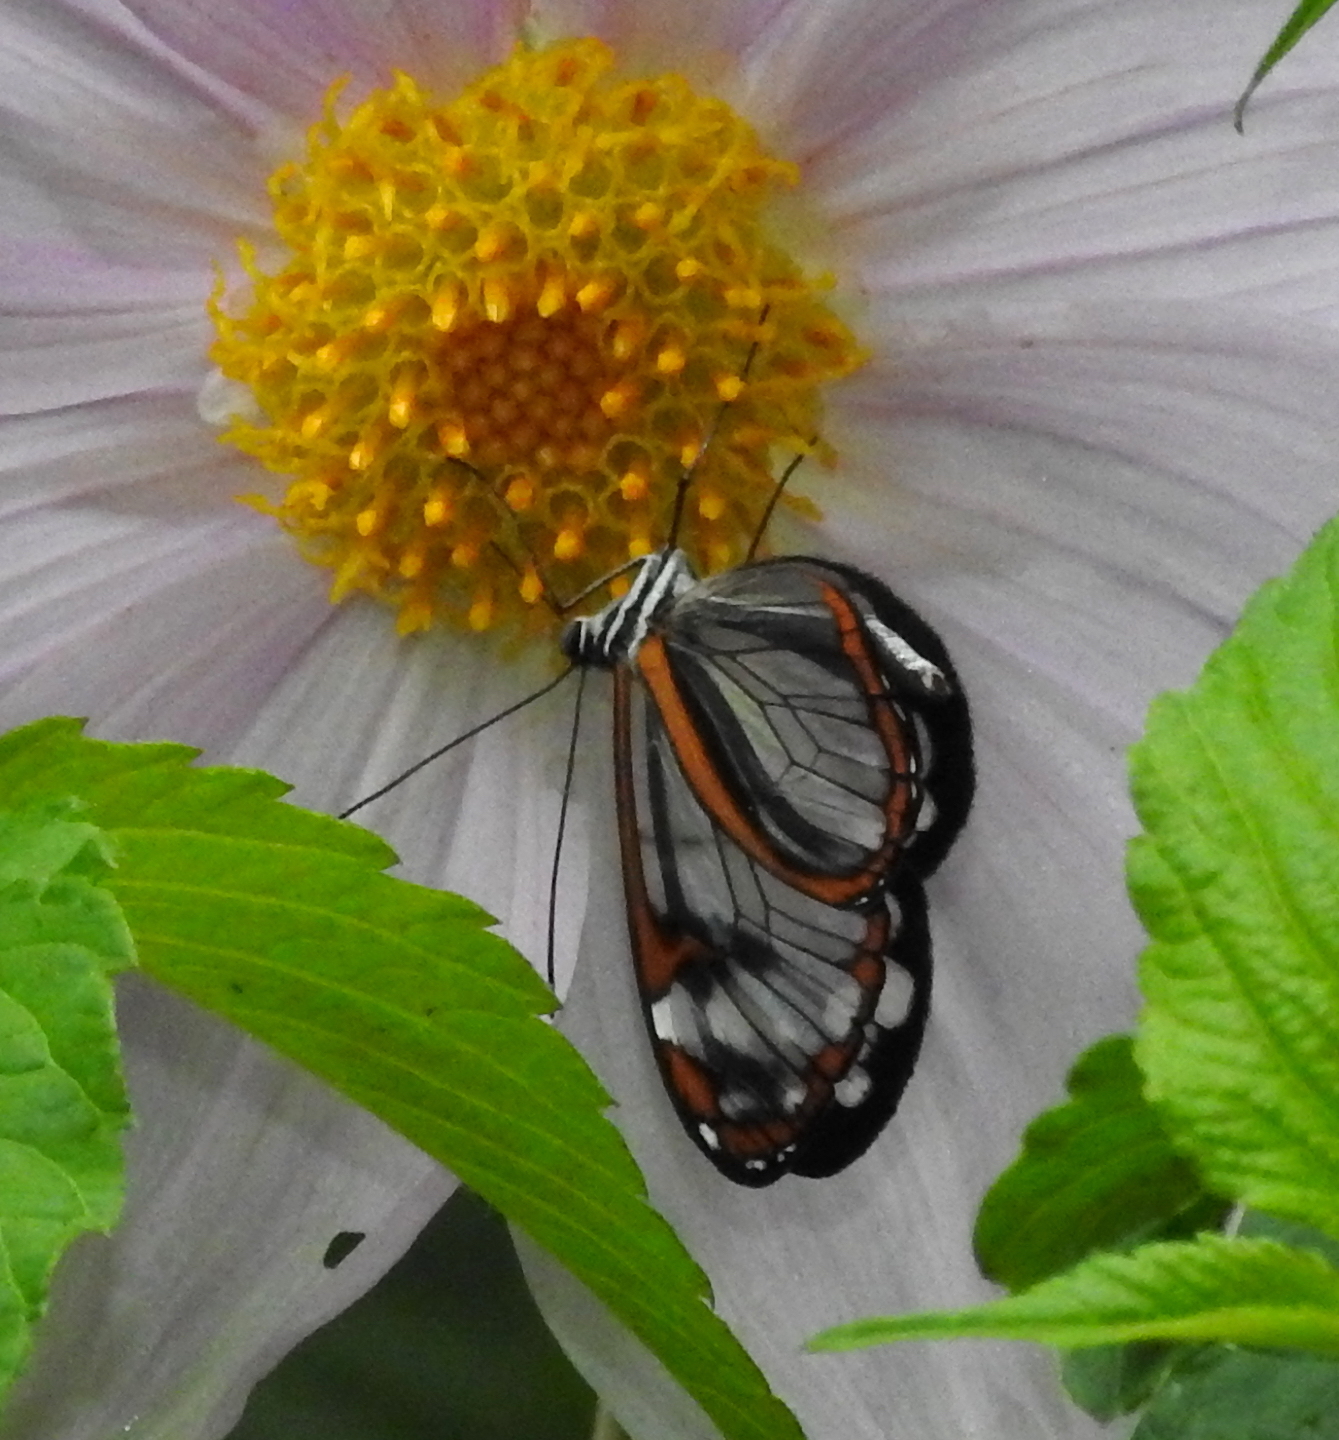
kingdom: Animalia
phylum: Arthropoda
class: Insecta
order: Lepidoptera
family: Nymphalidae
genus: Oleria
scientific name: Oleria santineza
